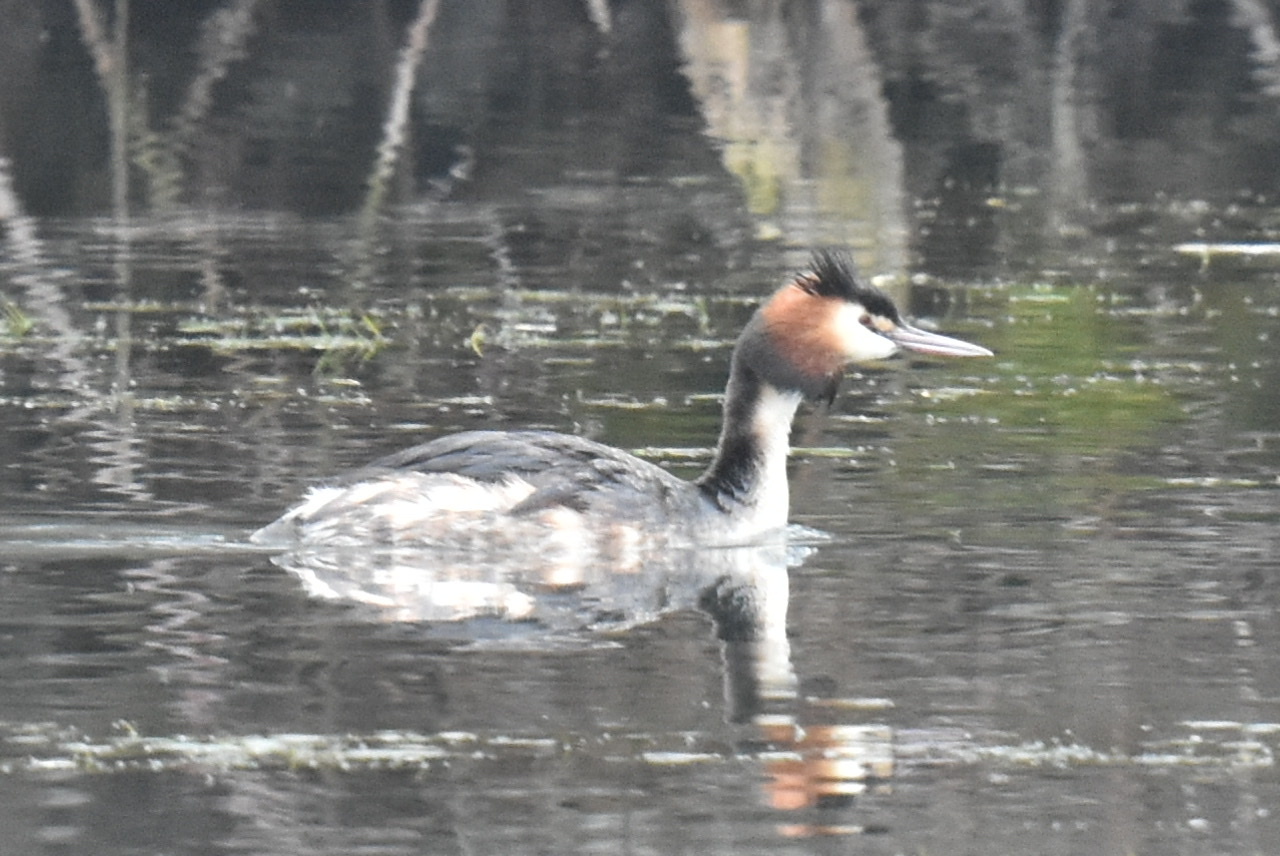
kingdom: Animalia
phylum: Chordata
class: Aves
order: Podicipediformes
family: Podicipedidae
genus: Podiceps
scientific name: Podiceps cristatus
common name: Great crested grebe
